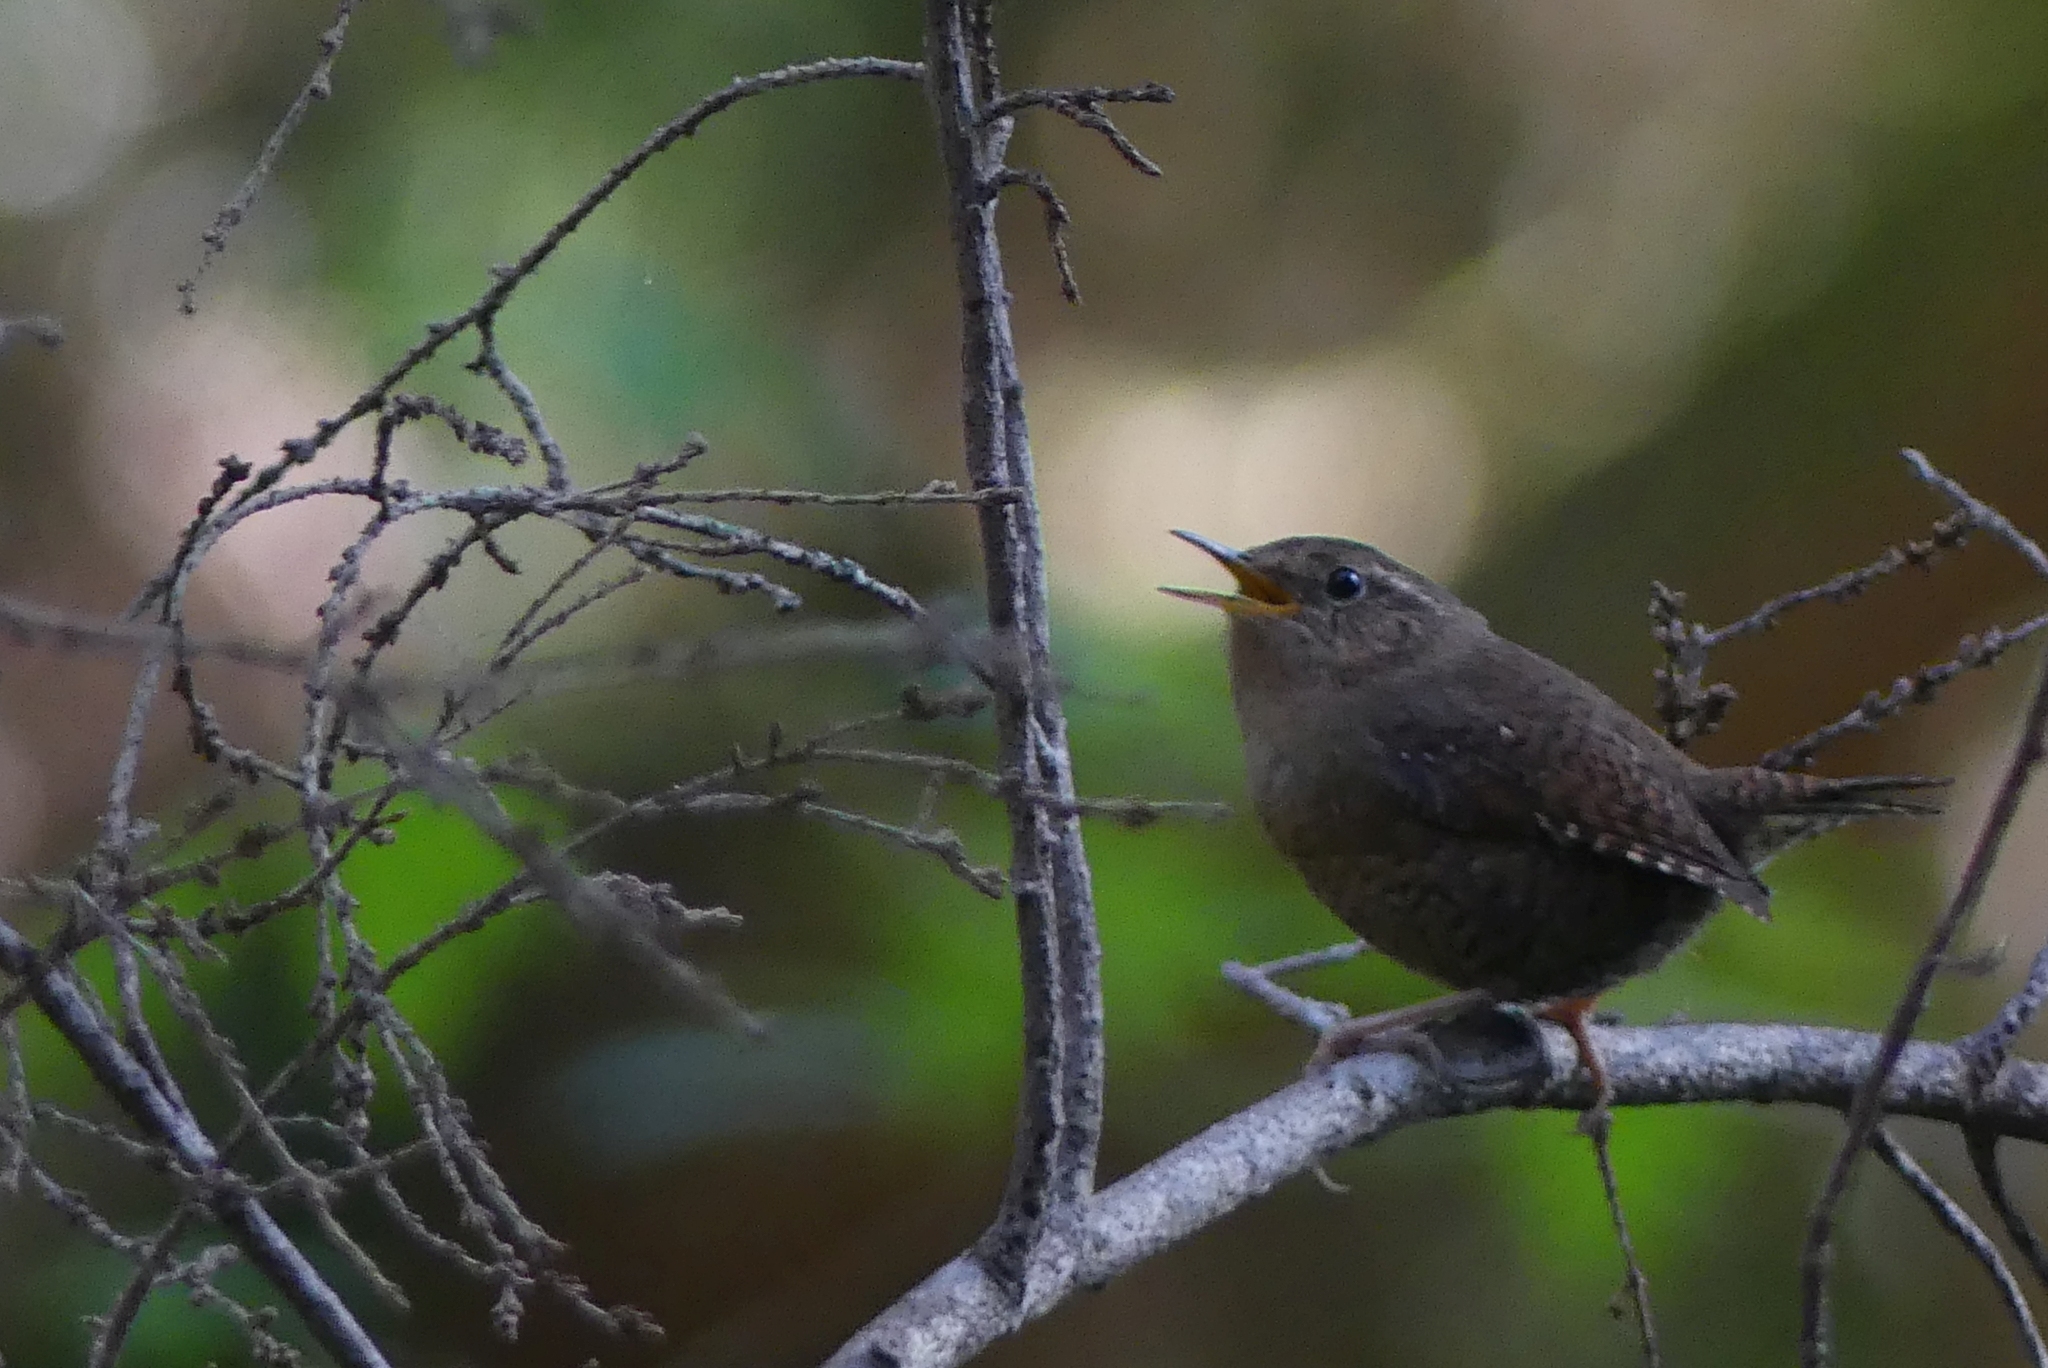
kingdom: Animalia
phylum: Chordata
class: Aves
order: Passeriformes
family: Troglodytidae
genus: Troglodytes
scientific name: Troglodytes pacificus
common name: Pacific wren
